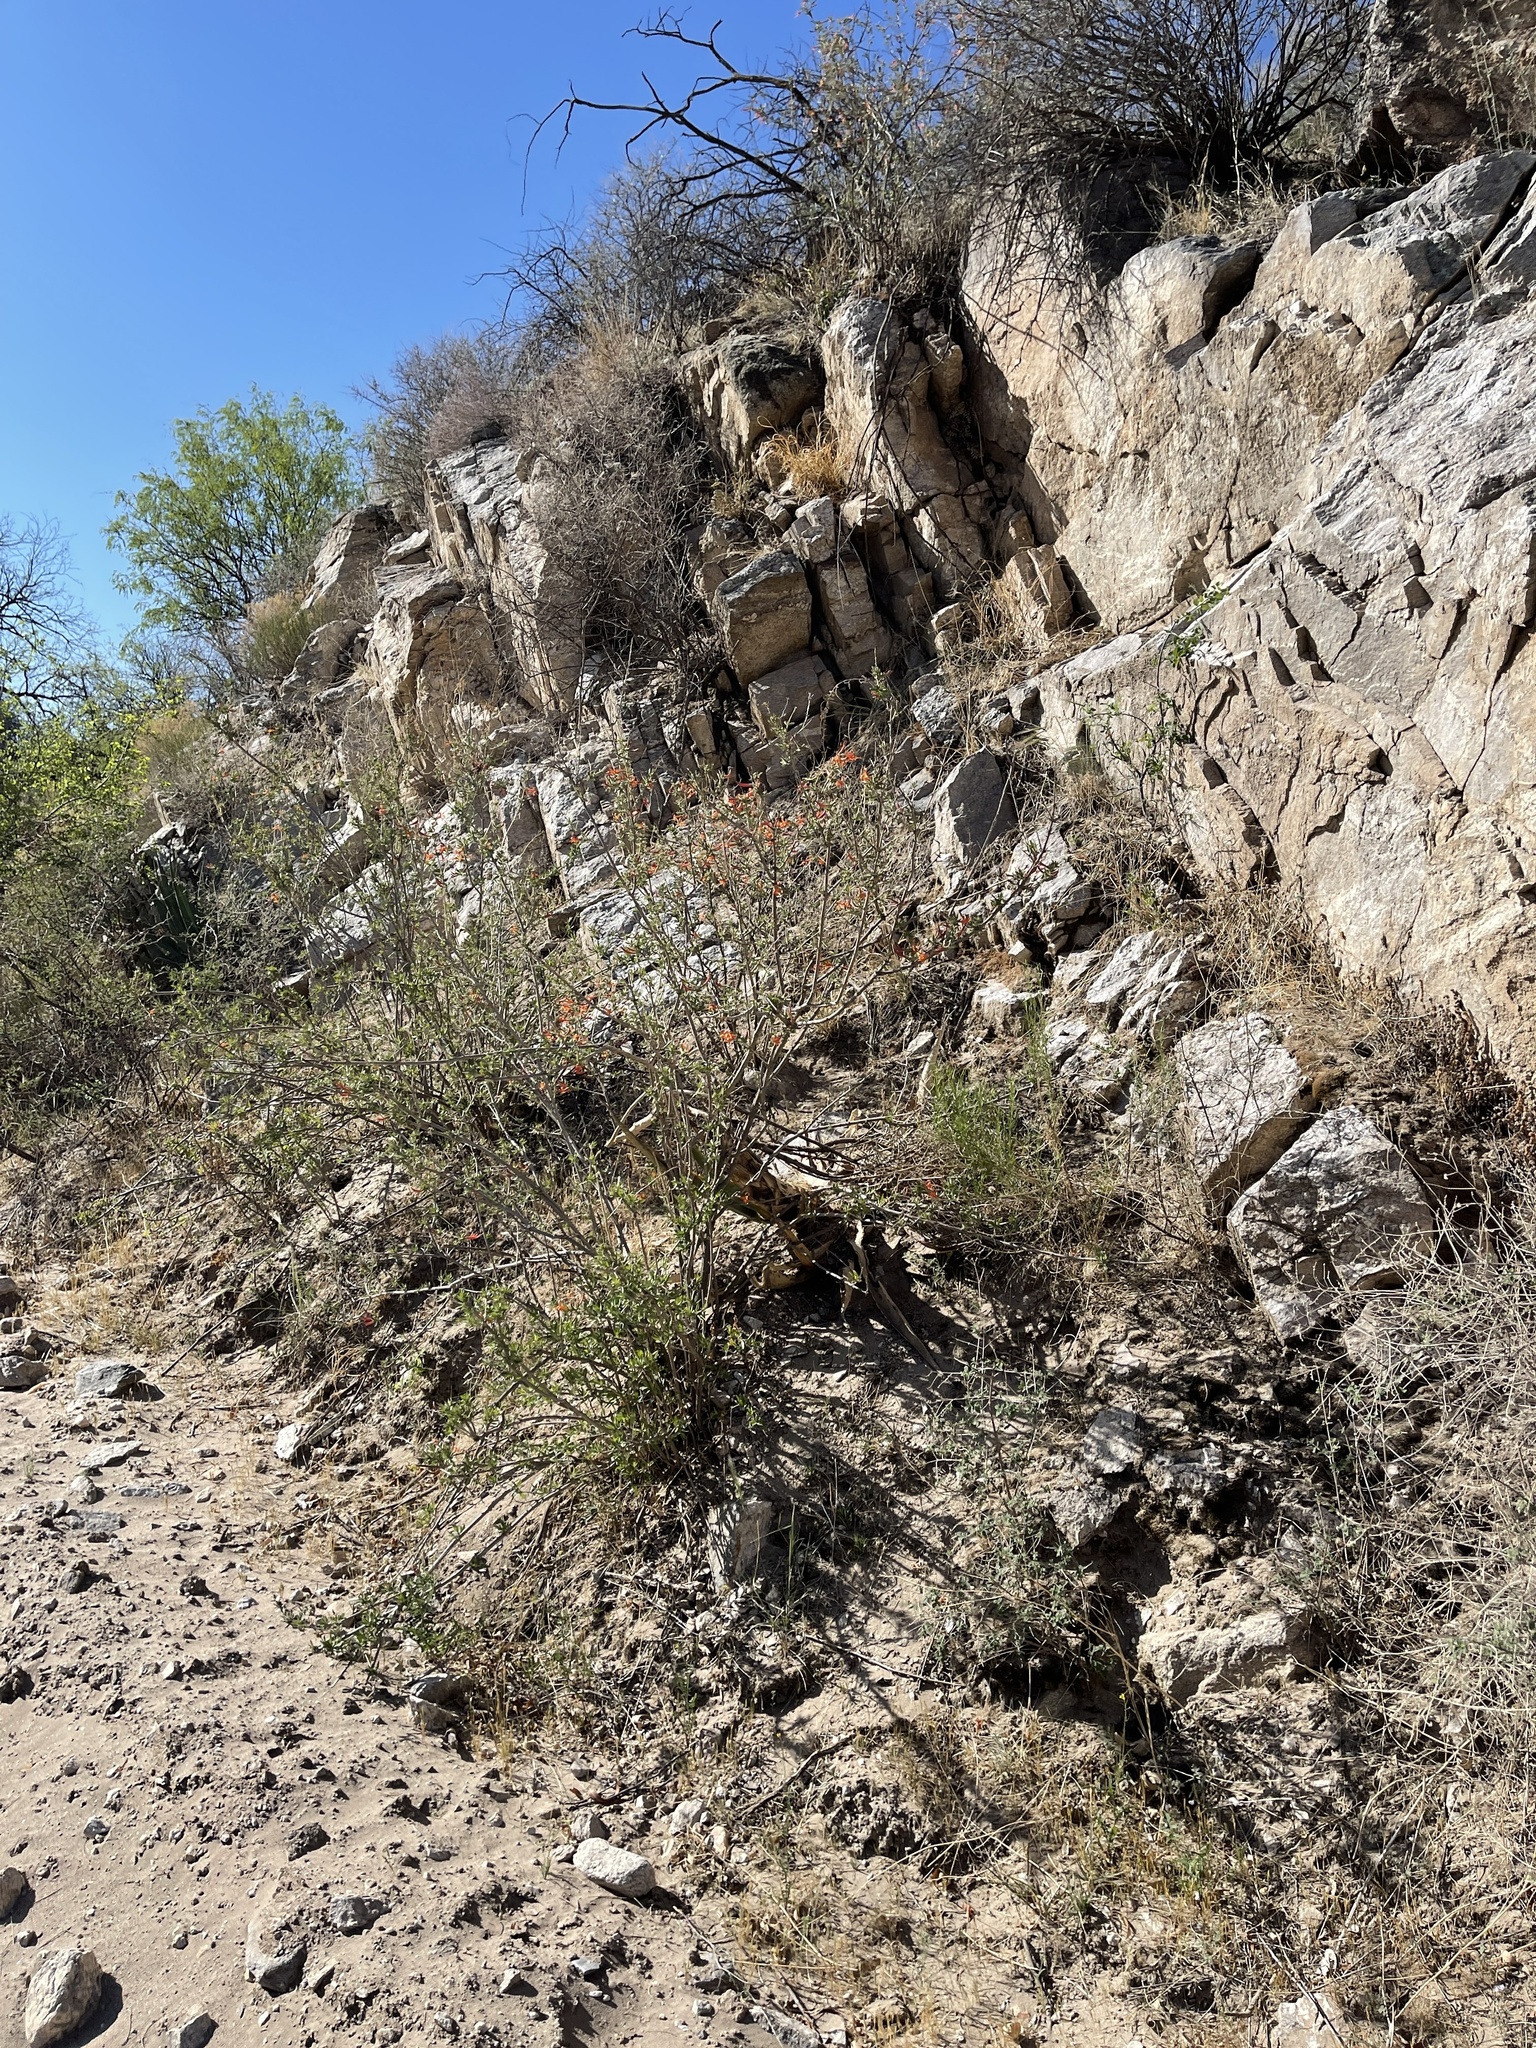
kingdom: Plantae
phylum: Tracheophyta
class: Magnoliopsida
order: Lamiales
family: Acanthaceae
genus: Anisacanthus
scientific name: Anisacanthus thurberi
